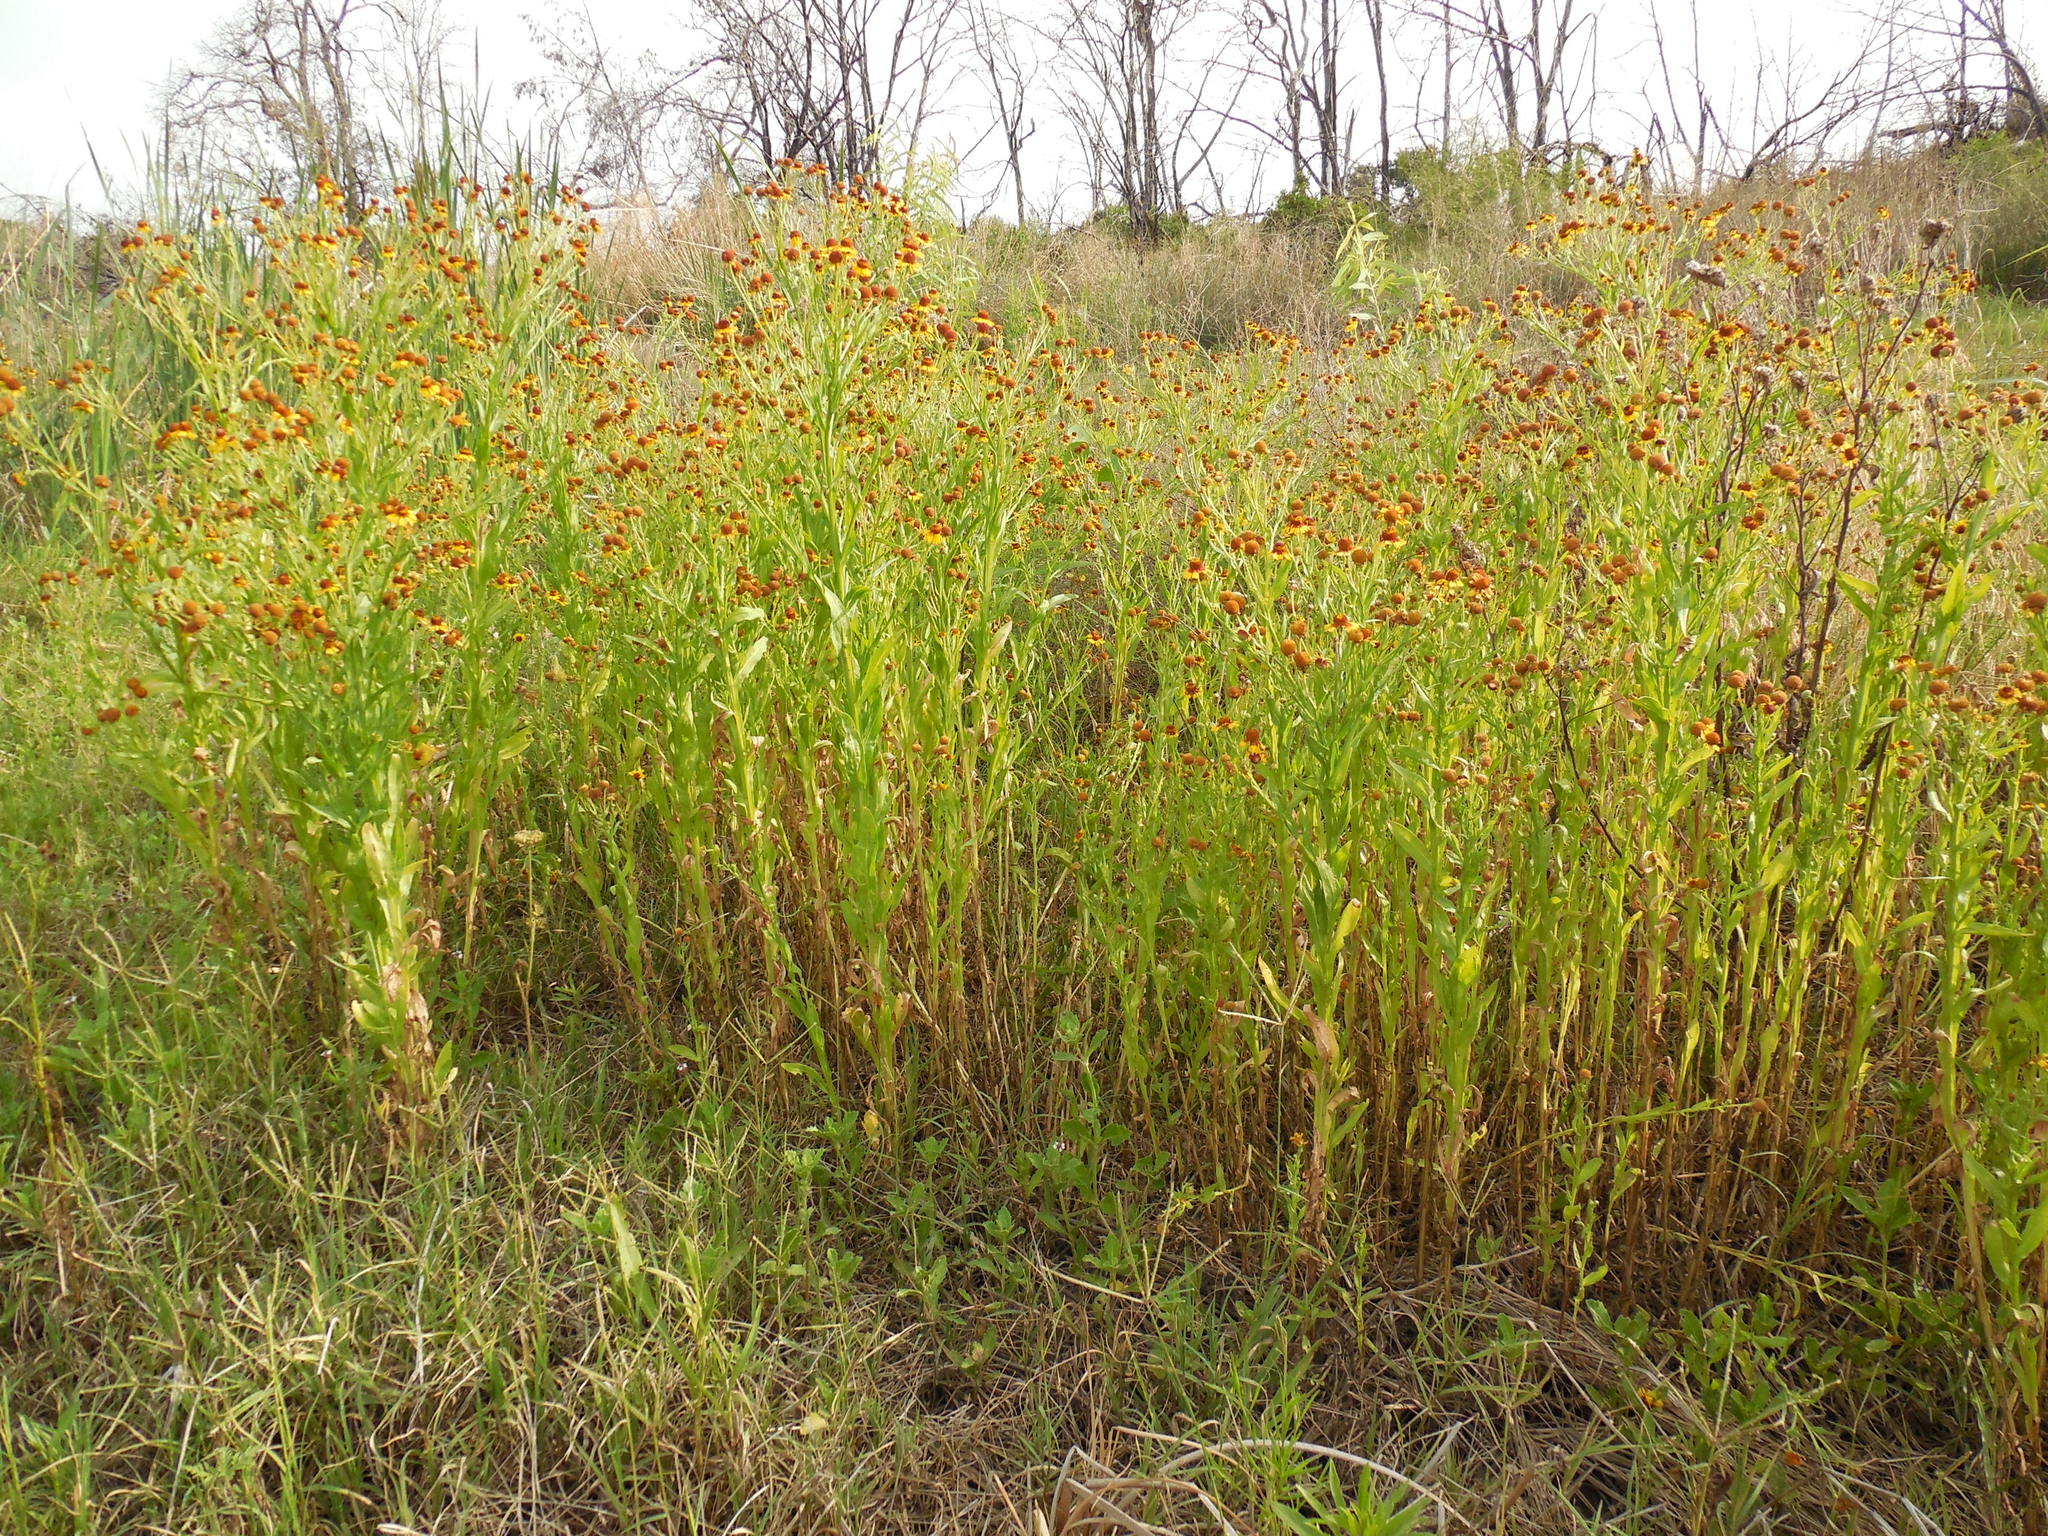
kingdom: Plantae
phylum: Tracheophyta
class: Magnoliopsida
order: Asterales
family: Asteraceae
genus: Helenium
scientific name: Helenium elegans
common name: Pretty sneezeweed
